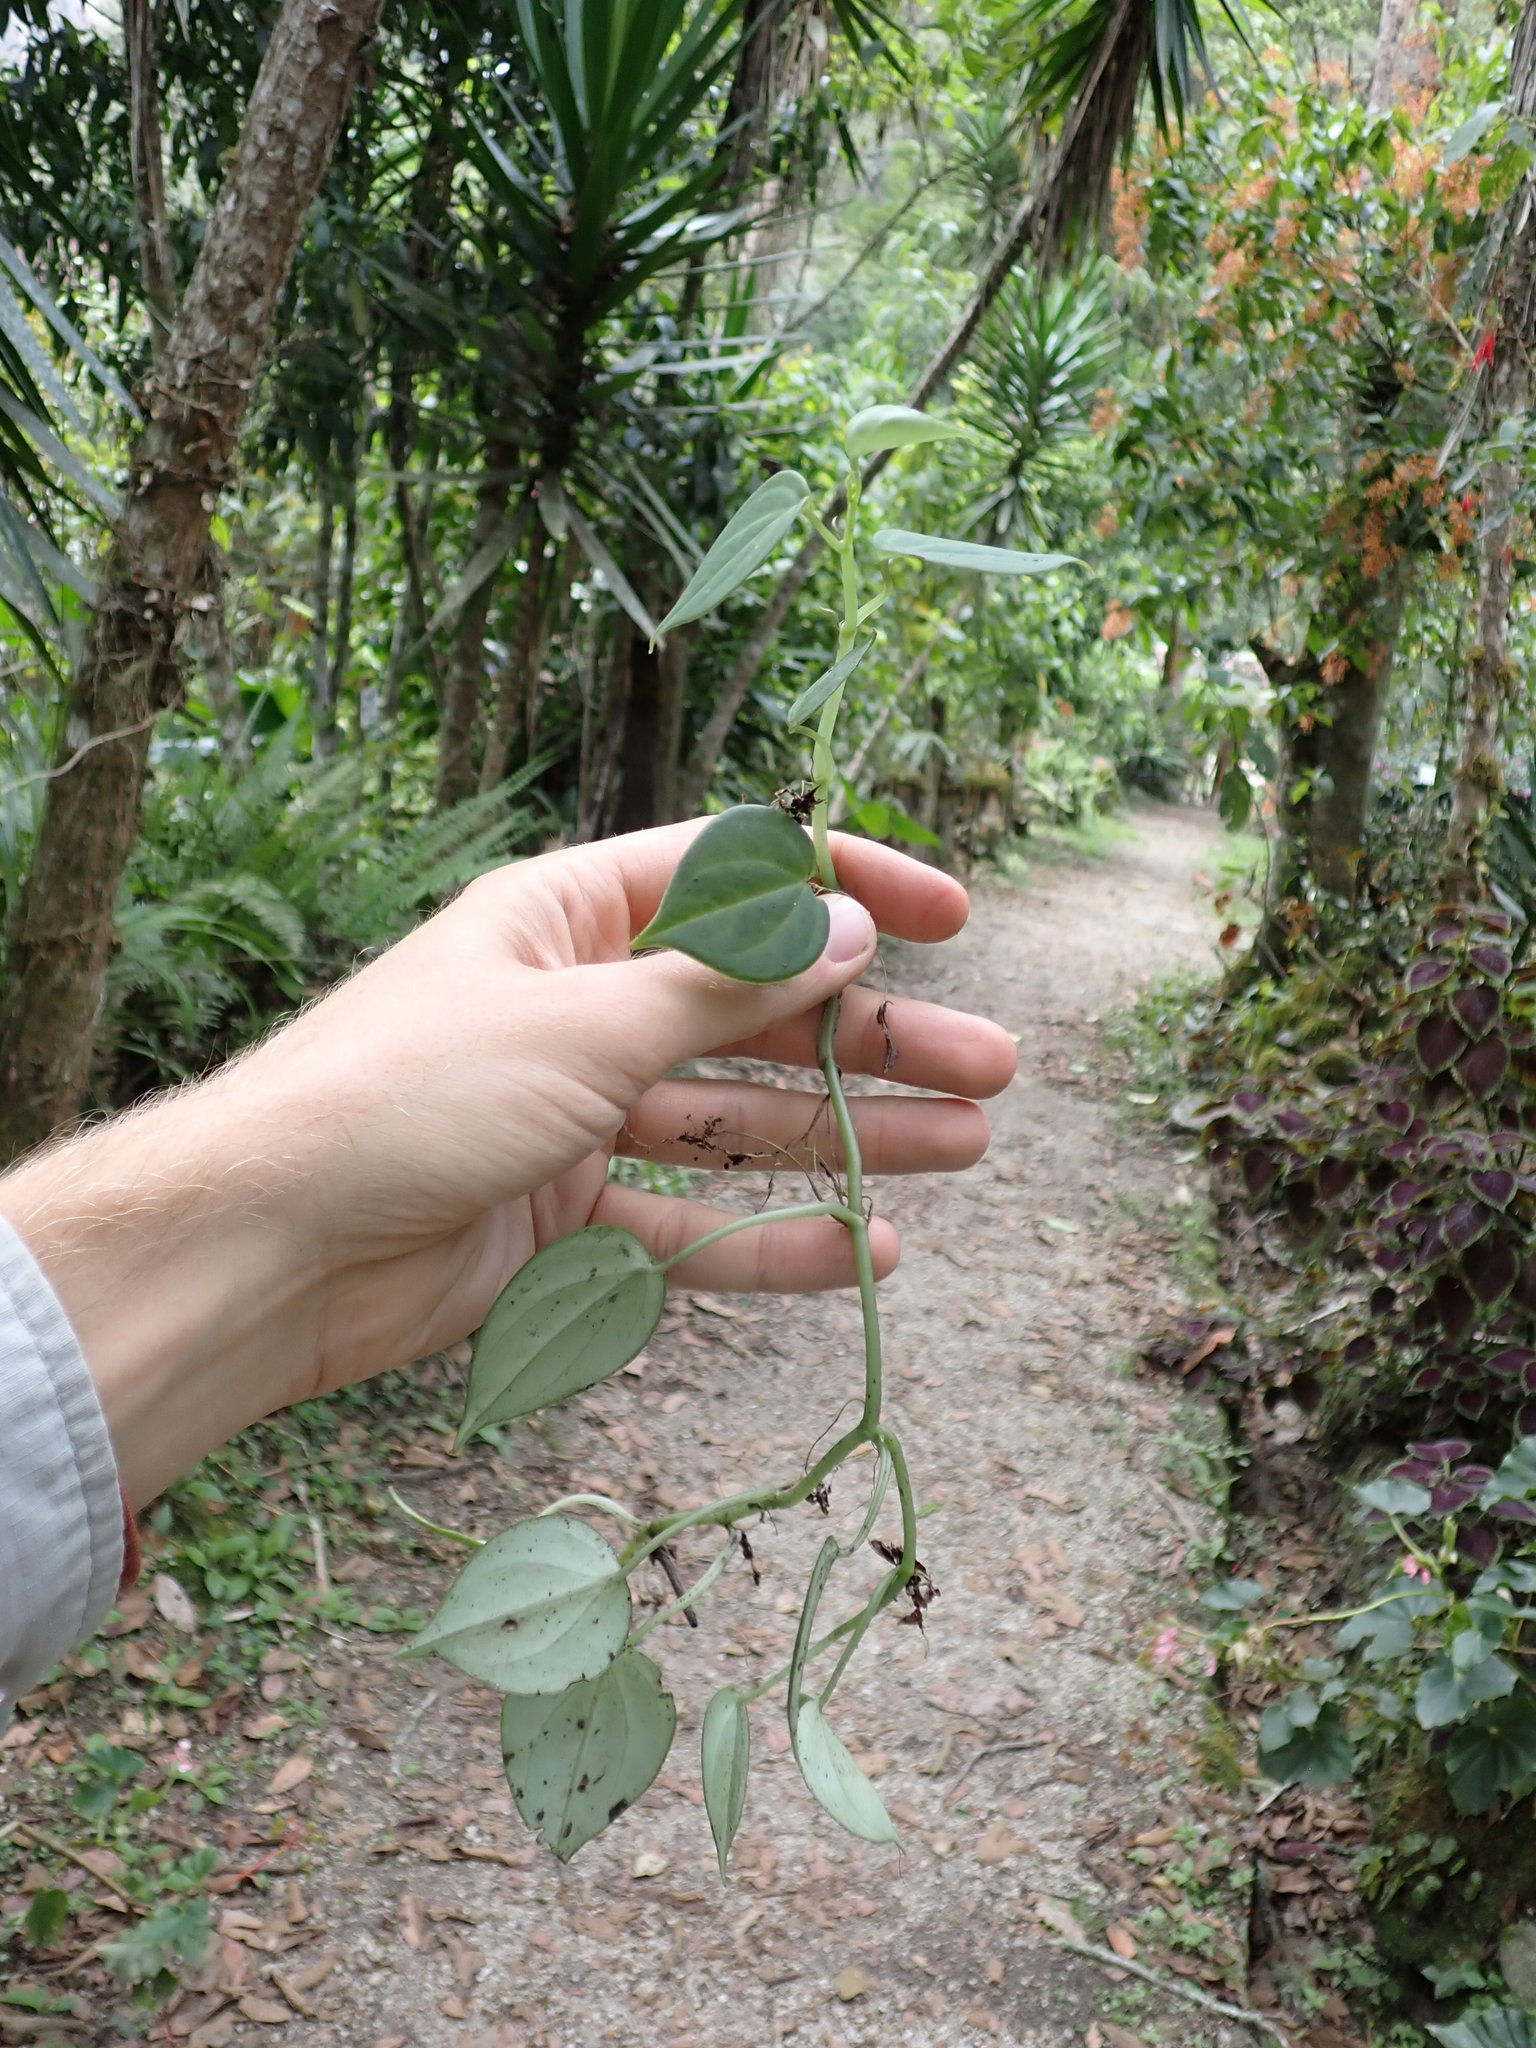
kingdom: Plantae
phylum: Tracheophyta
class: Magnoliopsida
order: Piperales
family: Piperaceae
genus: Peperomia
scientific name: Peperomia maransara
